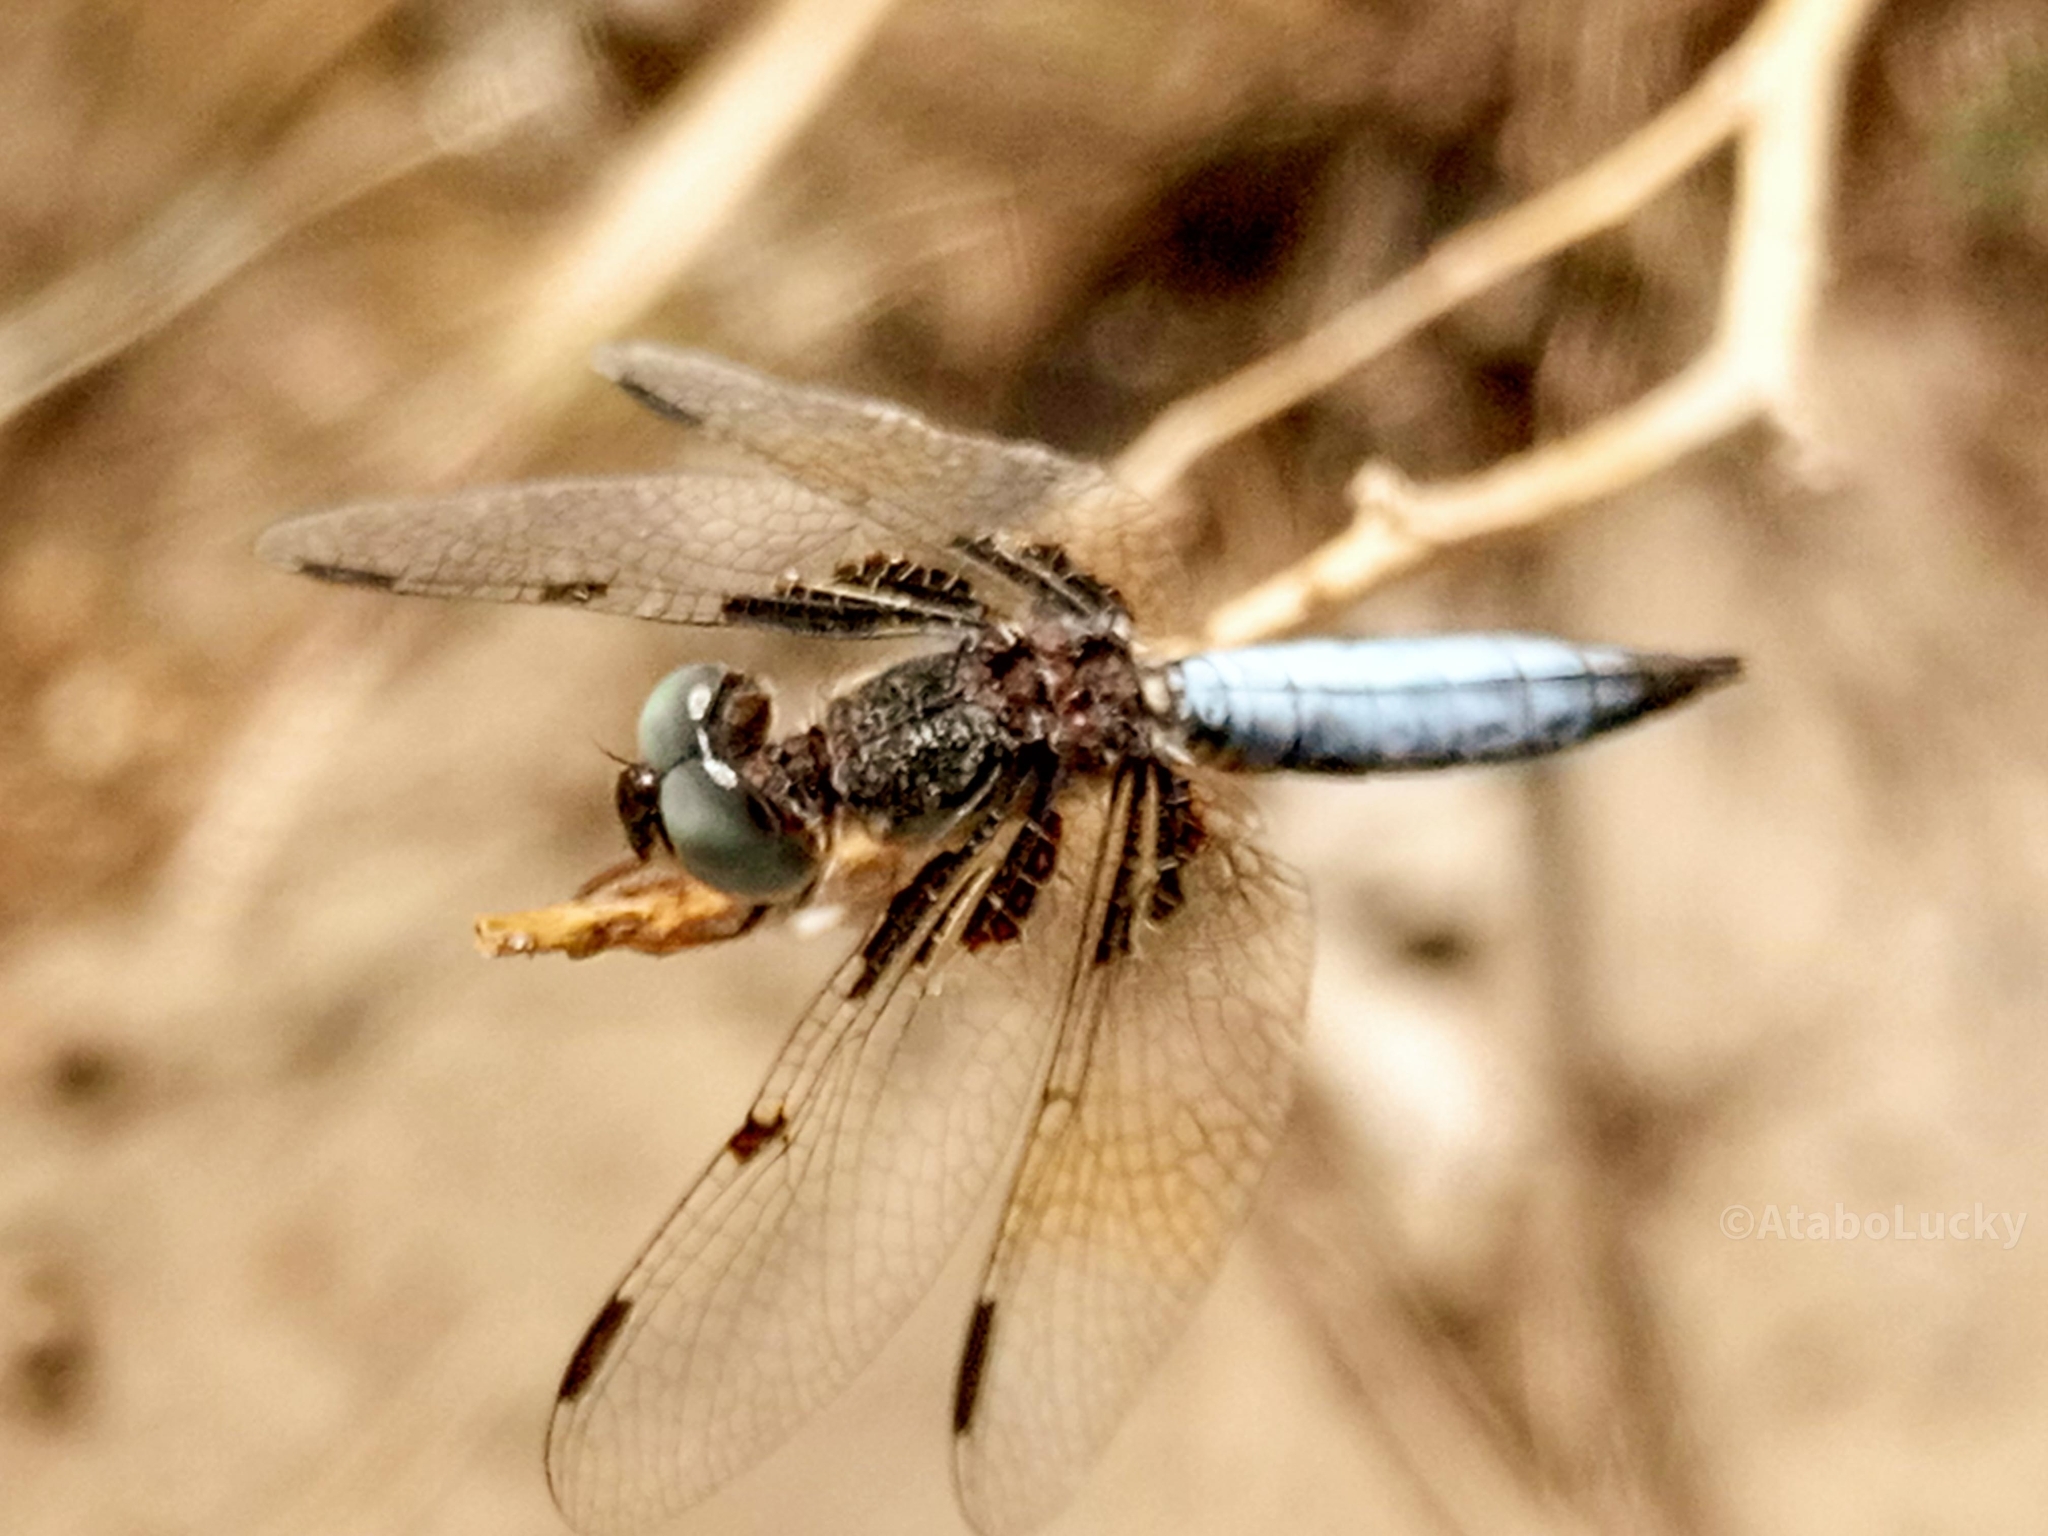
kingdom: Animalia
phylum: Arthropoda
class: Insecta
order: Odonata
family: Libellulidae
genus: Palpopleura
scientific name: Palpopleura jucunda
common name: Yellow-veined widow
